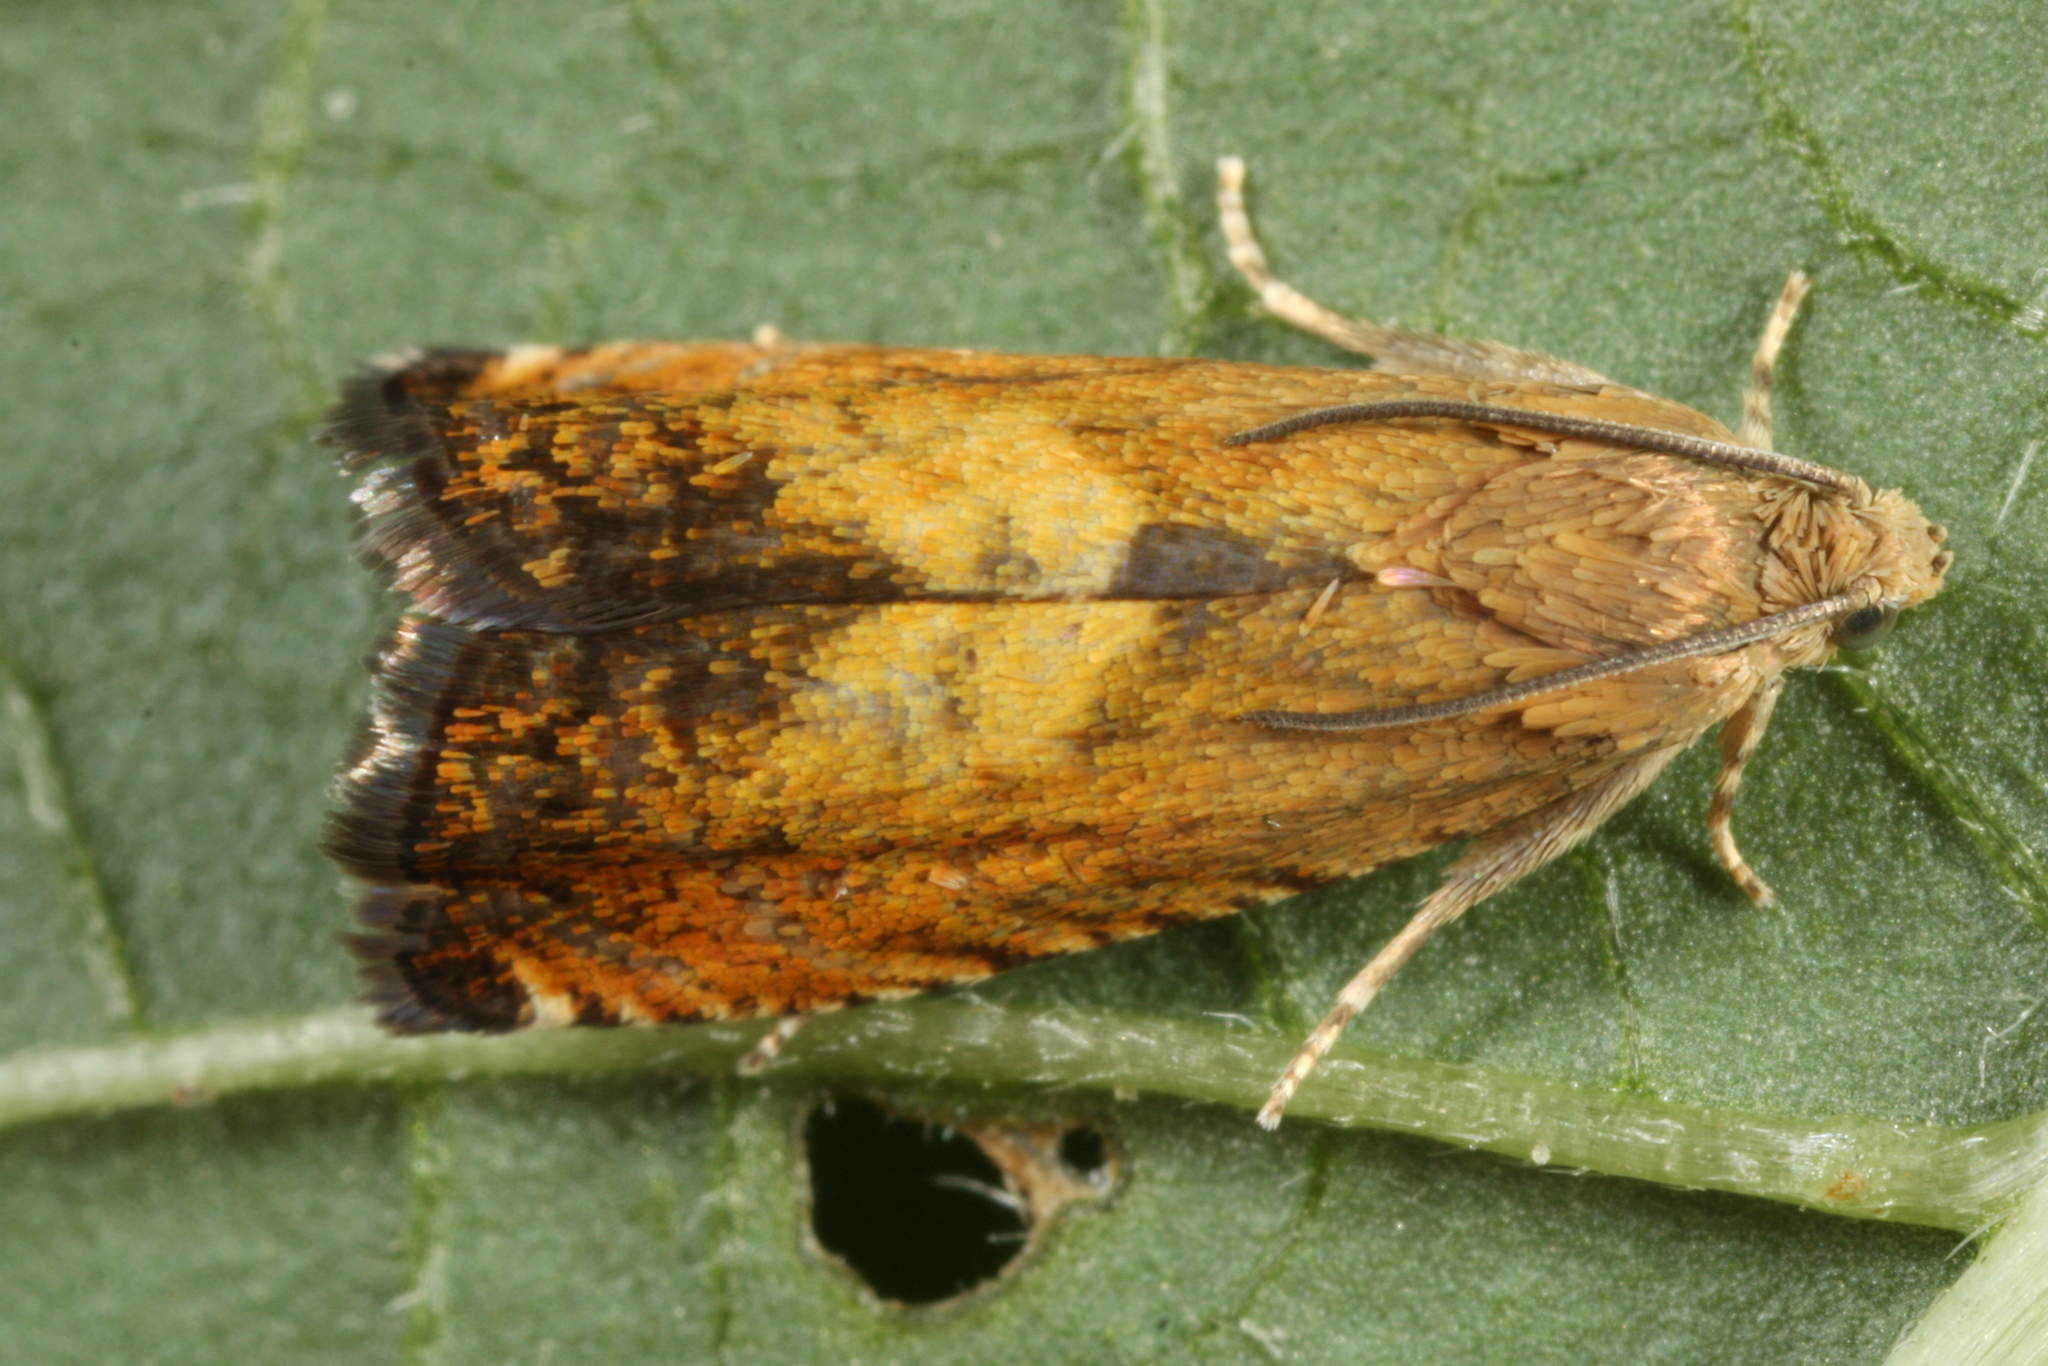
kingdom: Animalia
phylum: Arthropoda
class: Insecta
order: Lepidoptera
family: Tortricidae
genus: Pammene
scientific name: Pammene aurita
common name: Sycamore piercer
